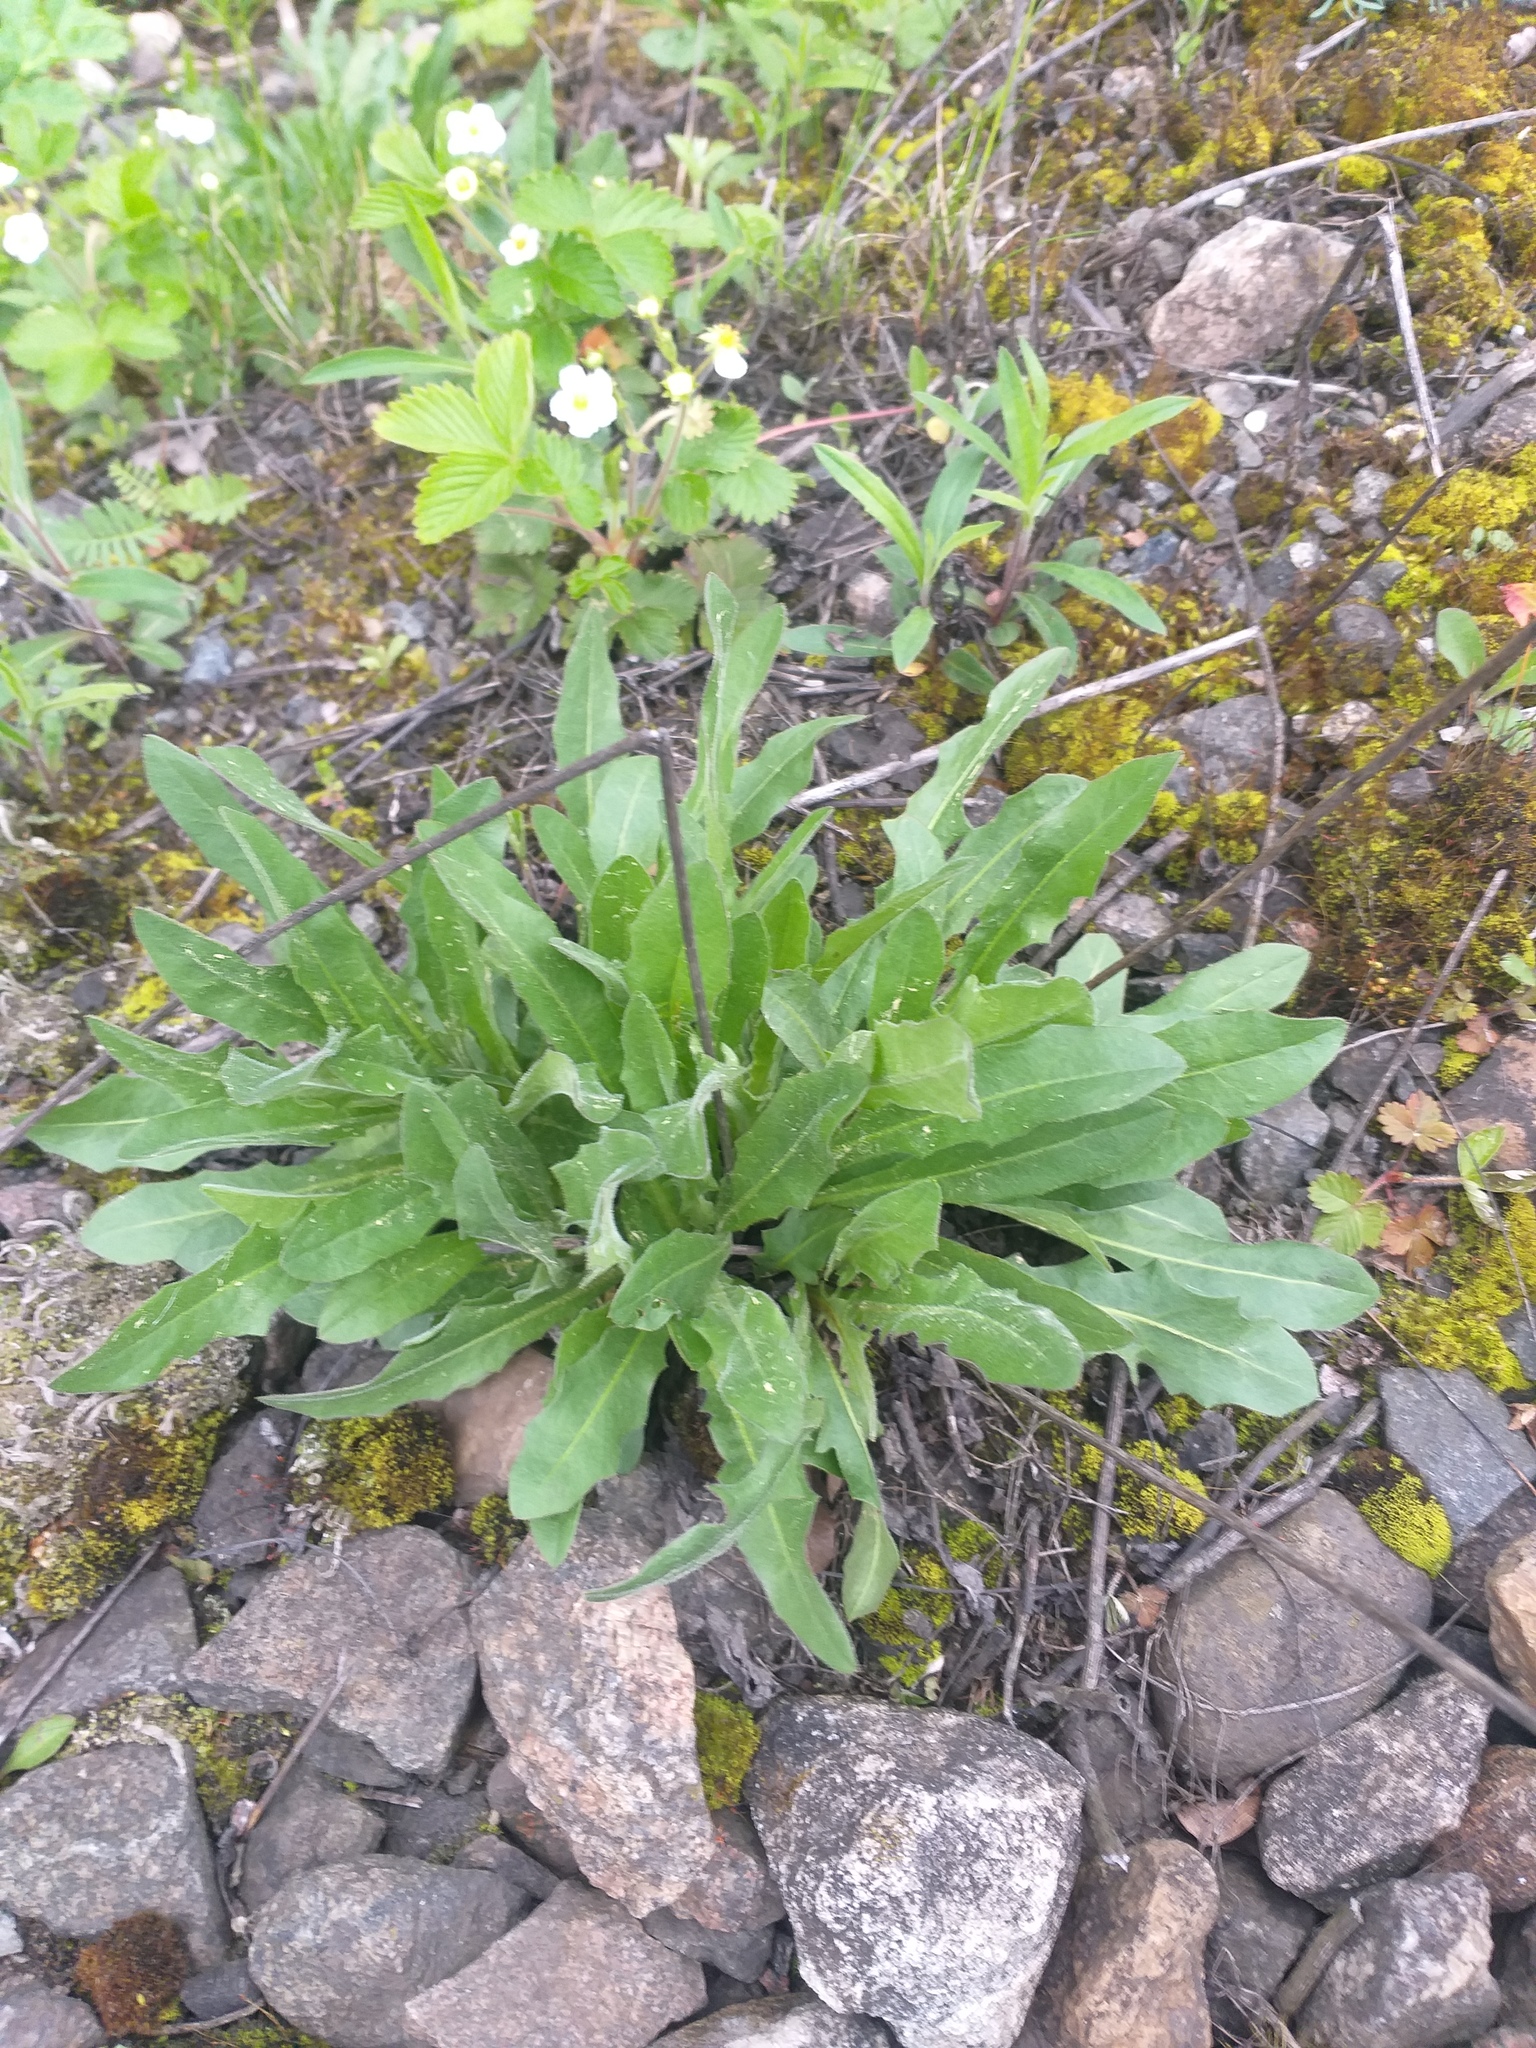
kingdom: Plantae
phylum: Tracheophyta
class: Magnoliopsida
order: Asterales
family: Asteraceae
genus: Leontodon
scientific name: Leontodon hispidus
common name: Rough hawkbit
